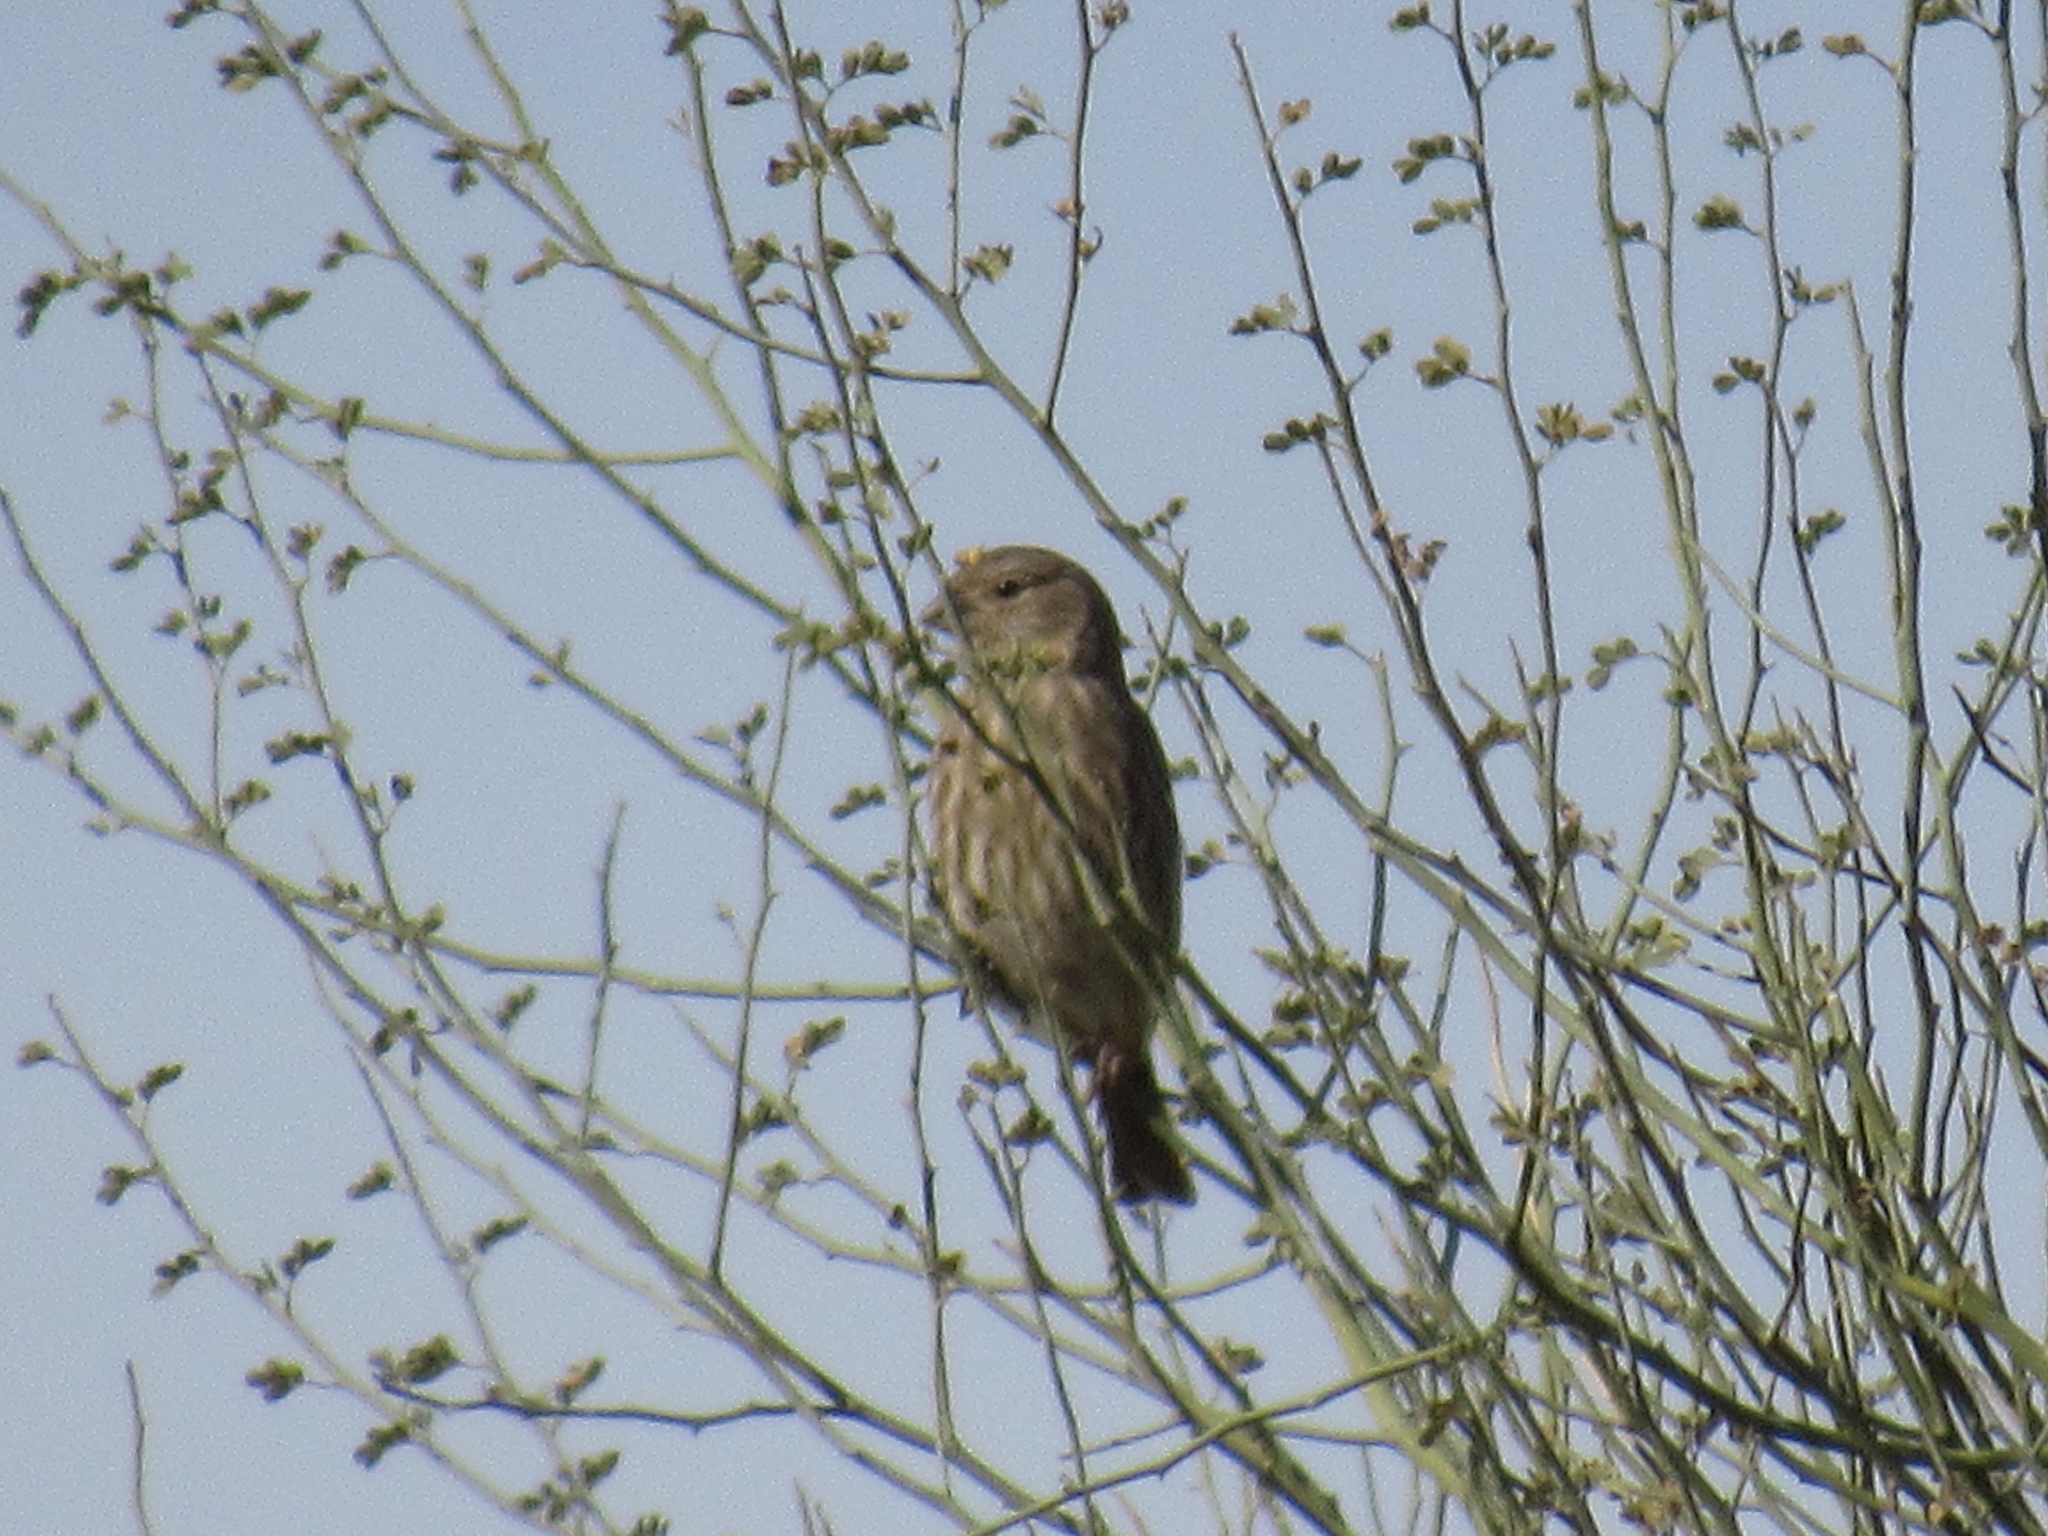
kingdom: Animalia
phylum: Chordata
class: Aves
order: Passeriformes
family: Fringillidae
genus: Haemorhous
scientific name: Haemorhous mexicanus
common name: House finch
